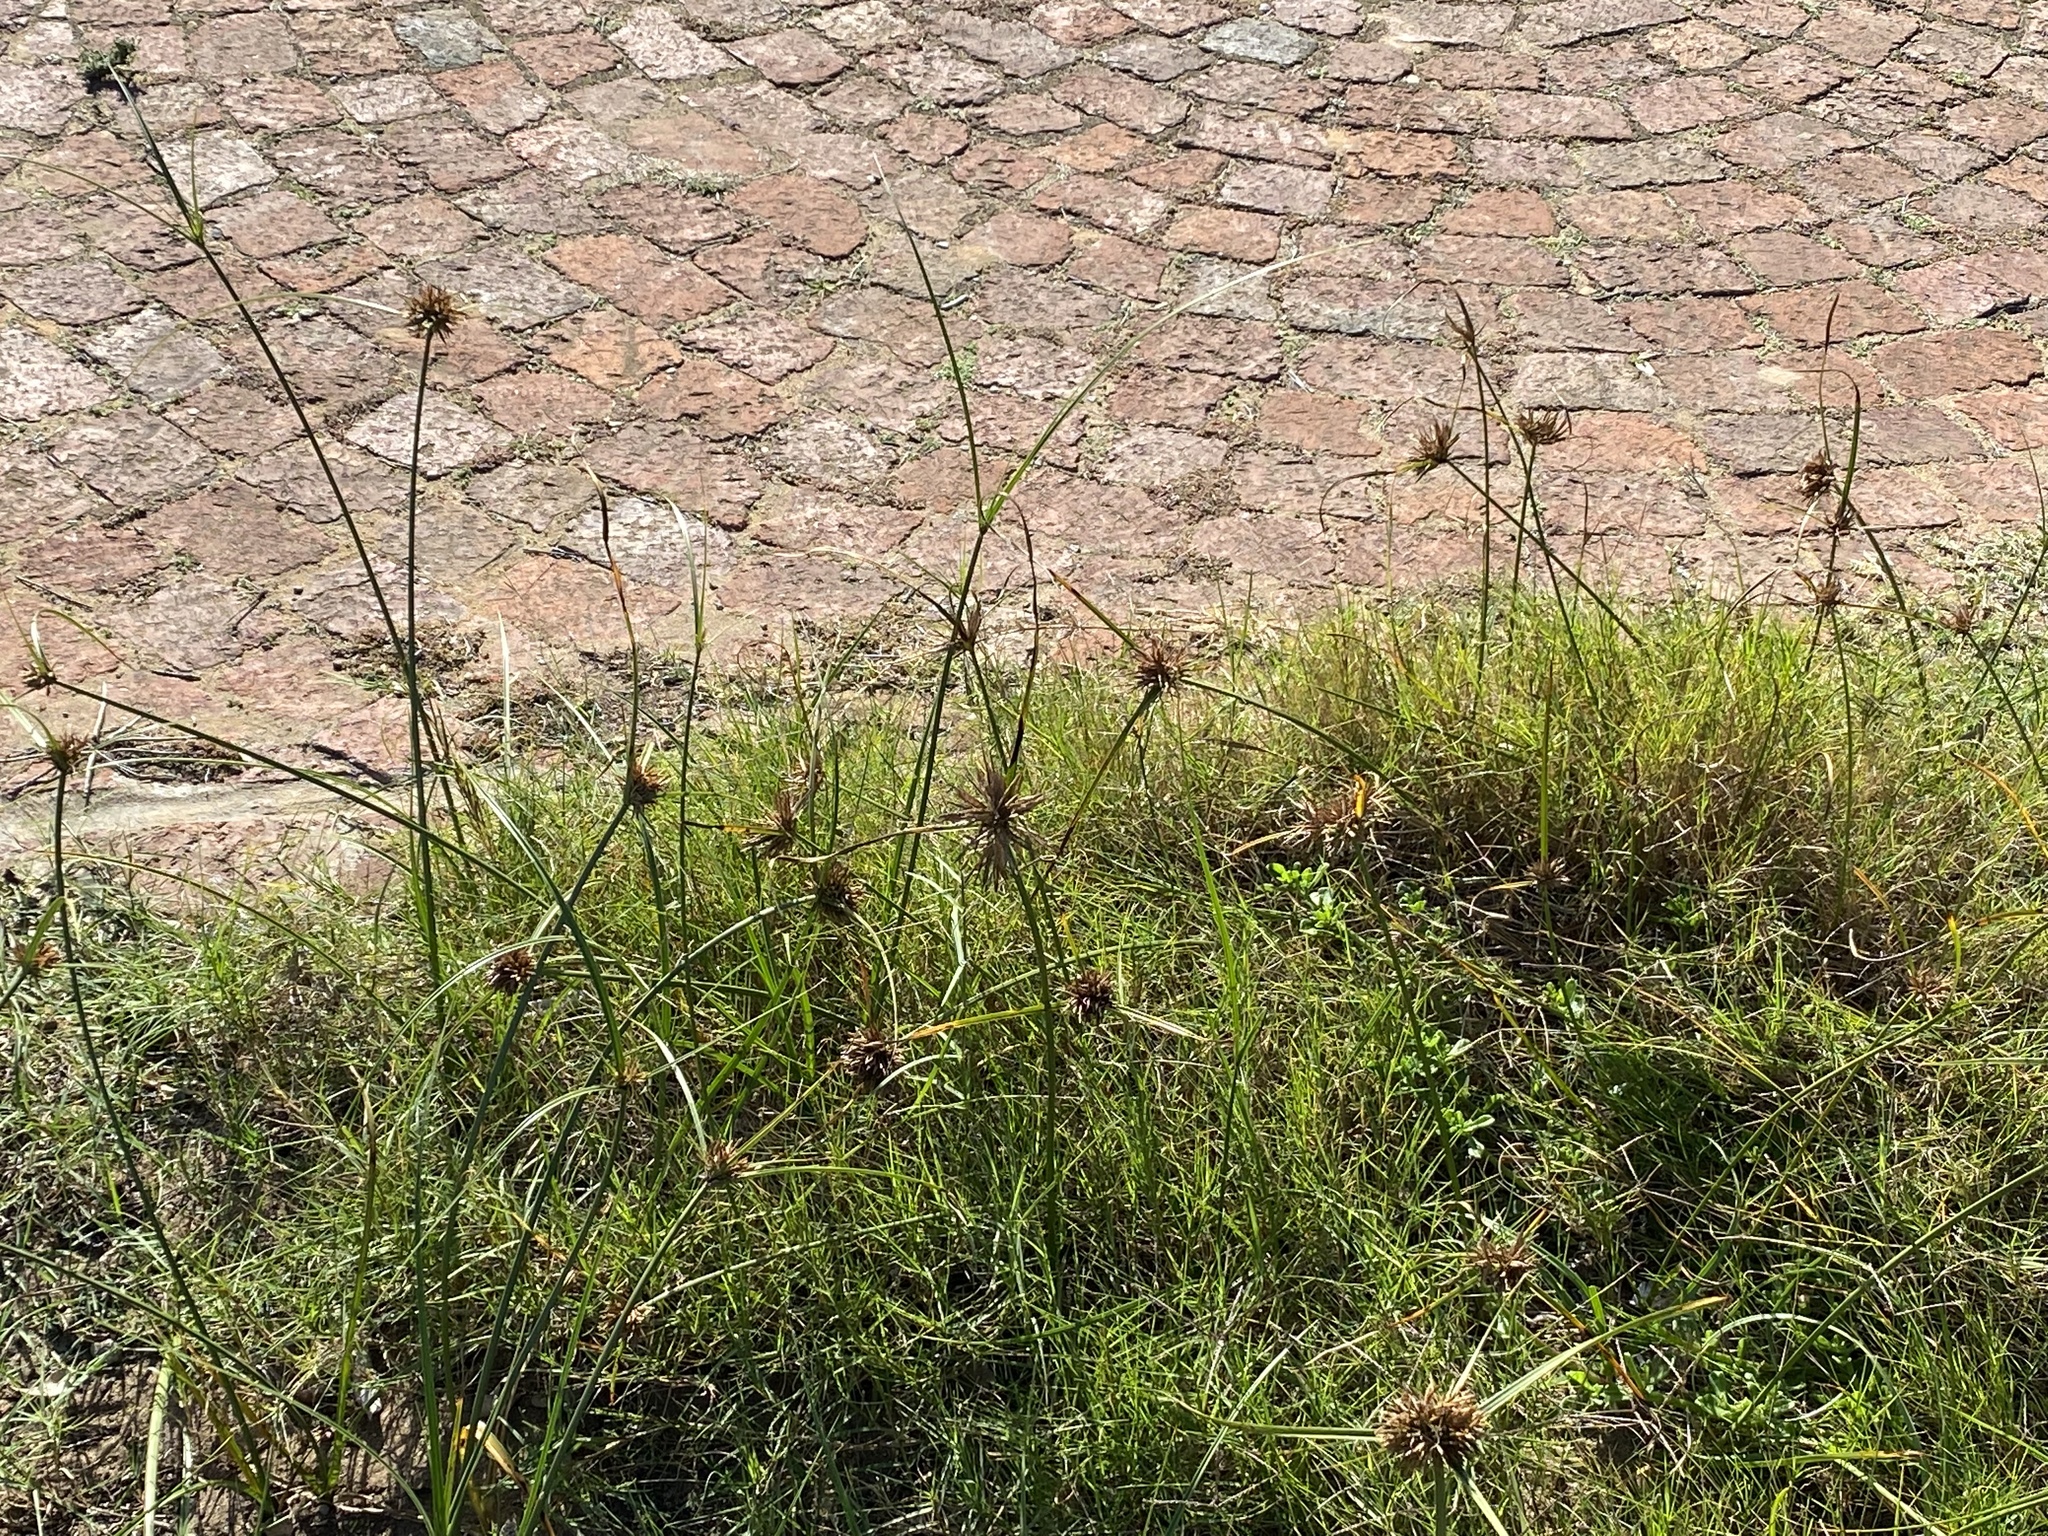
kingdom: Plantae
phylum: Tracheophyta
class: Liliopsida
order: Poales
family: Cyperaceae
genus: Cyperus
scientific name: Cyperus polystachyos
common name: Bunchy flat sedge
